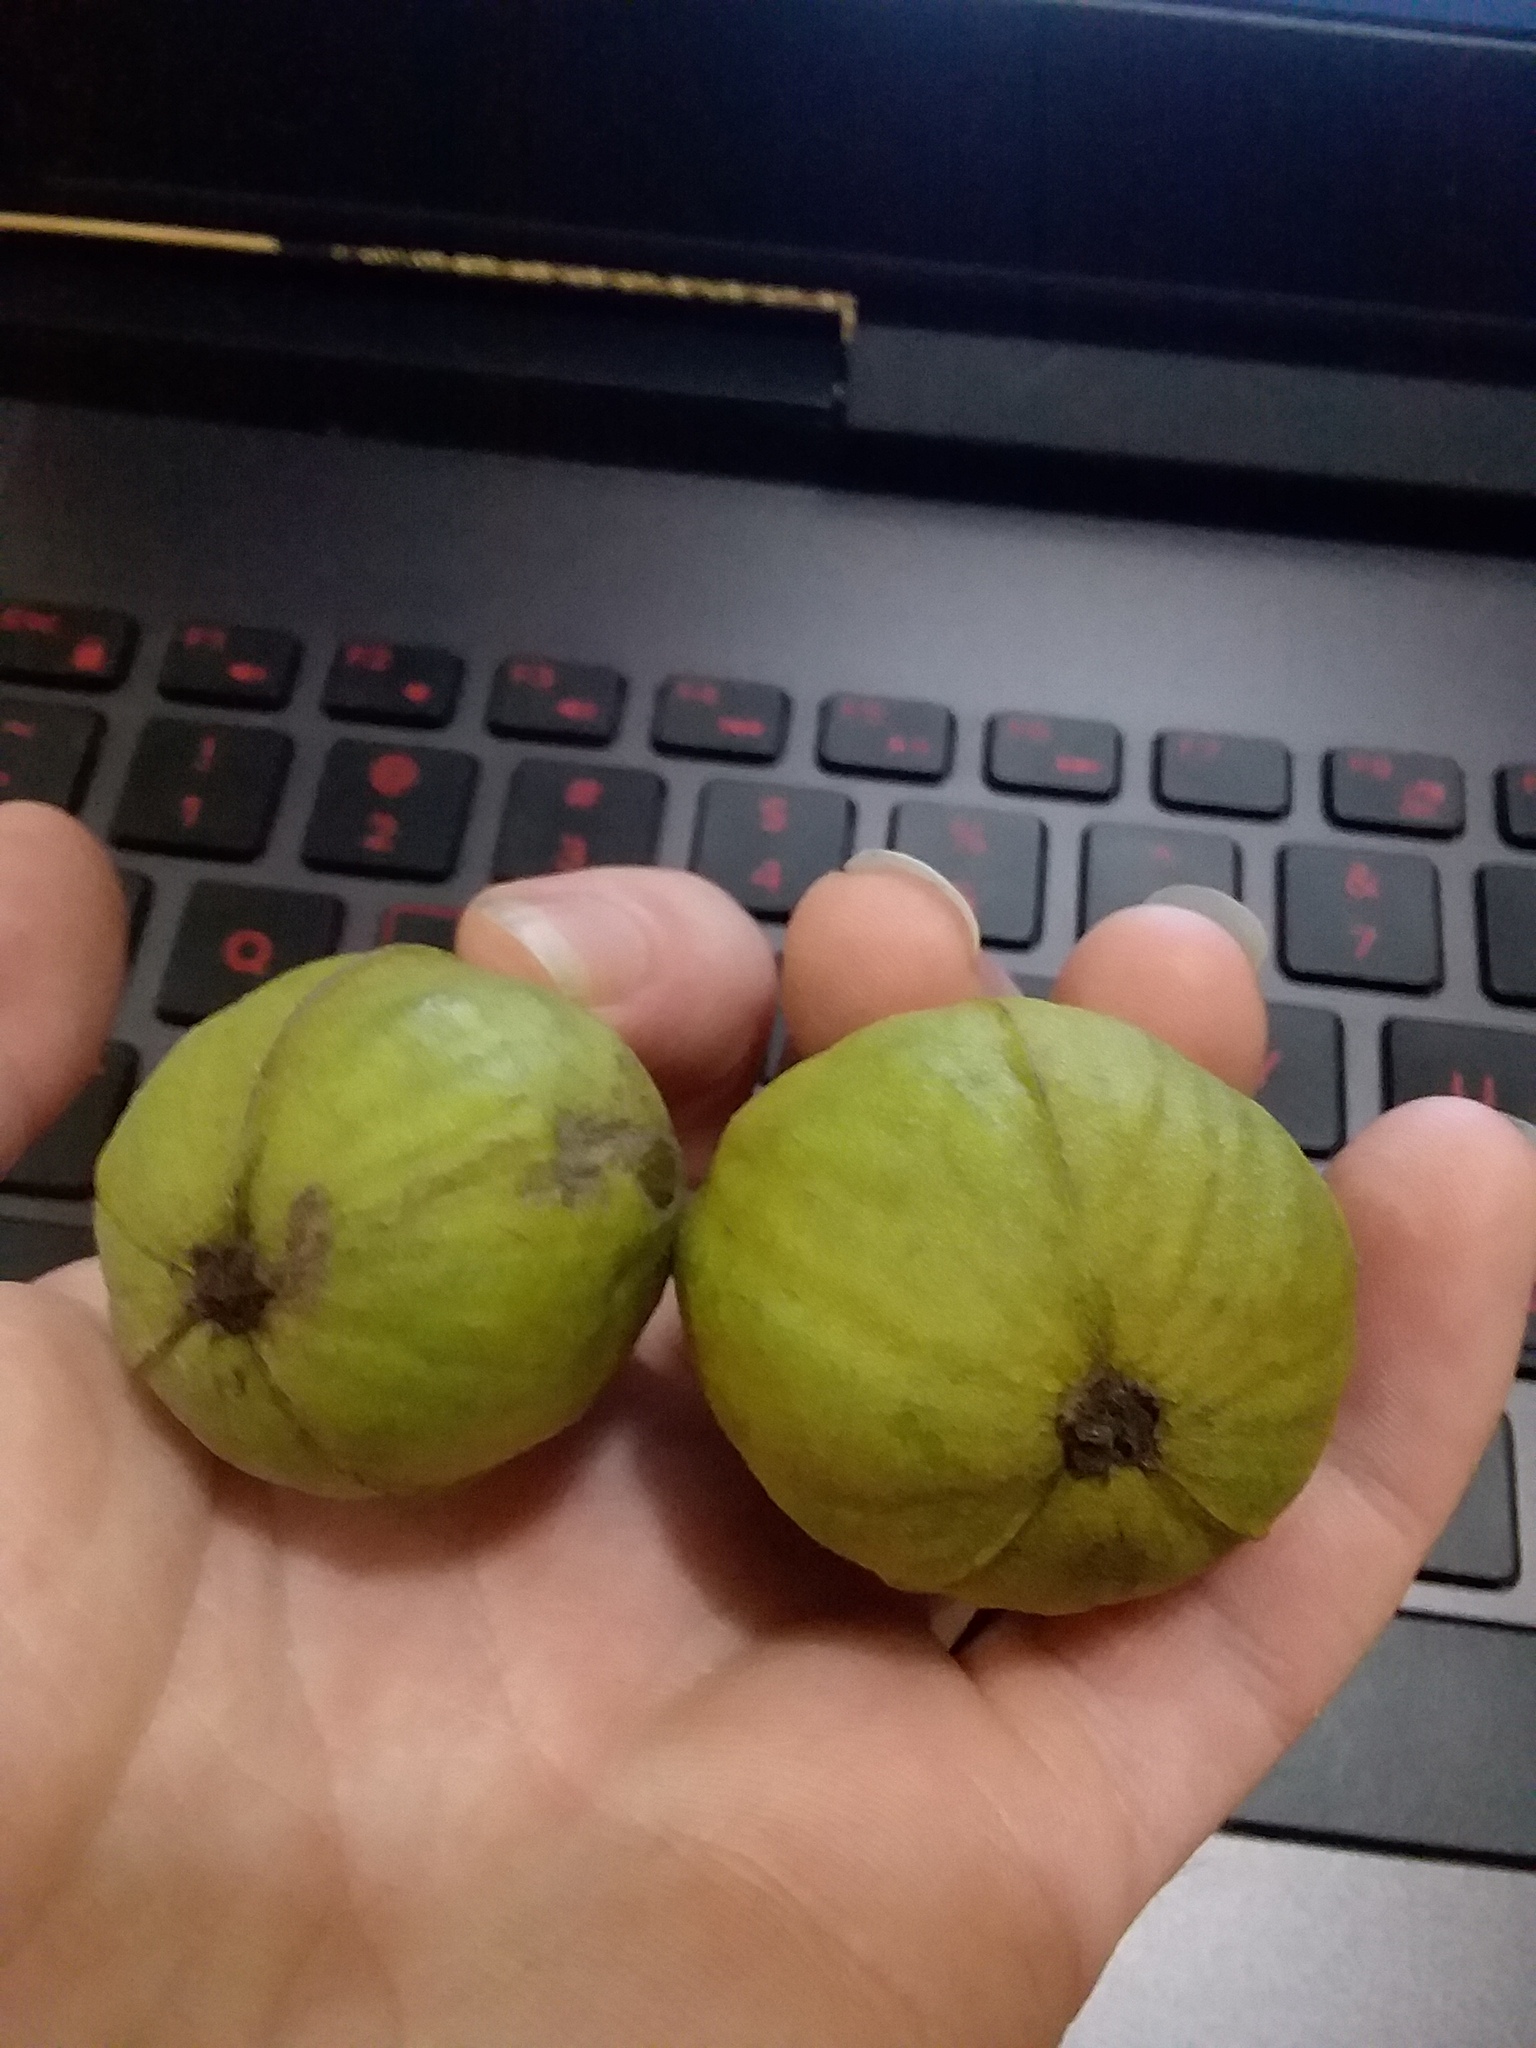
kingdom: Plantae
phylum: Tracheophyta
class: Magnoliopsida
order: Fagales
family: Juglandaceae
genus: Carya
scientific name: Carya glabra
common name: Pignut hickory
